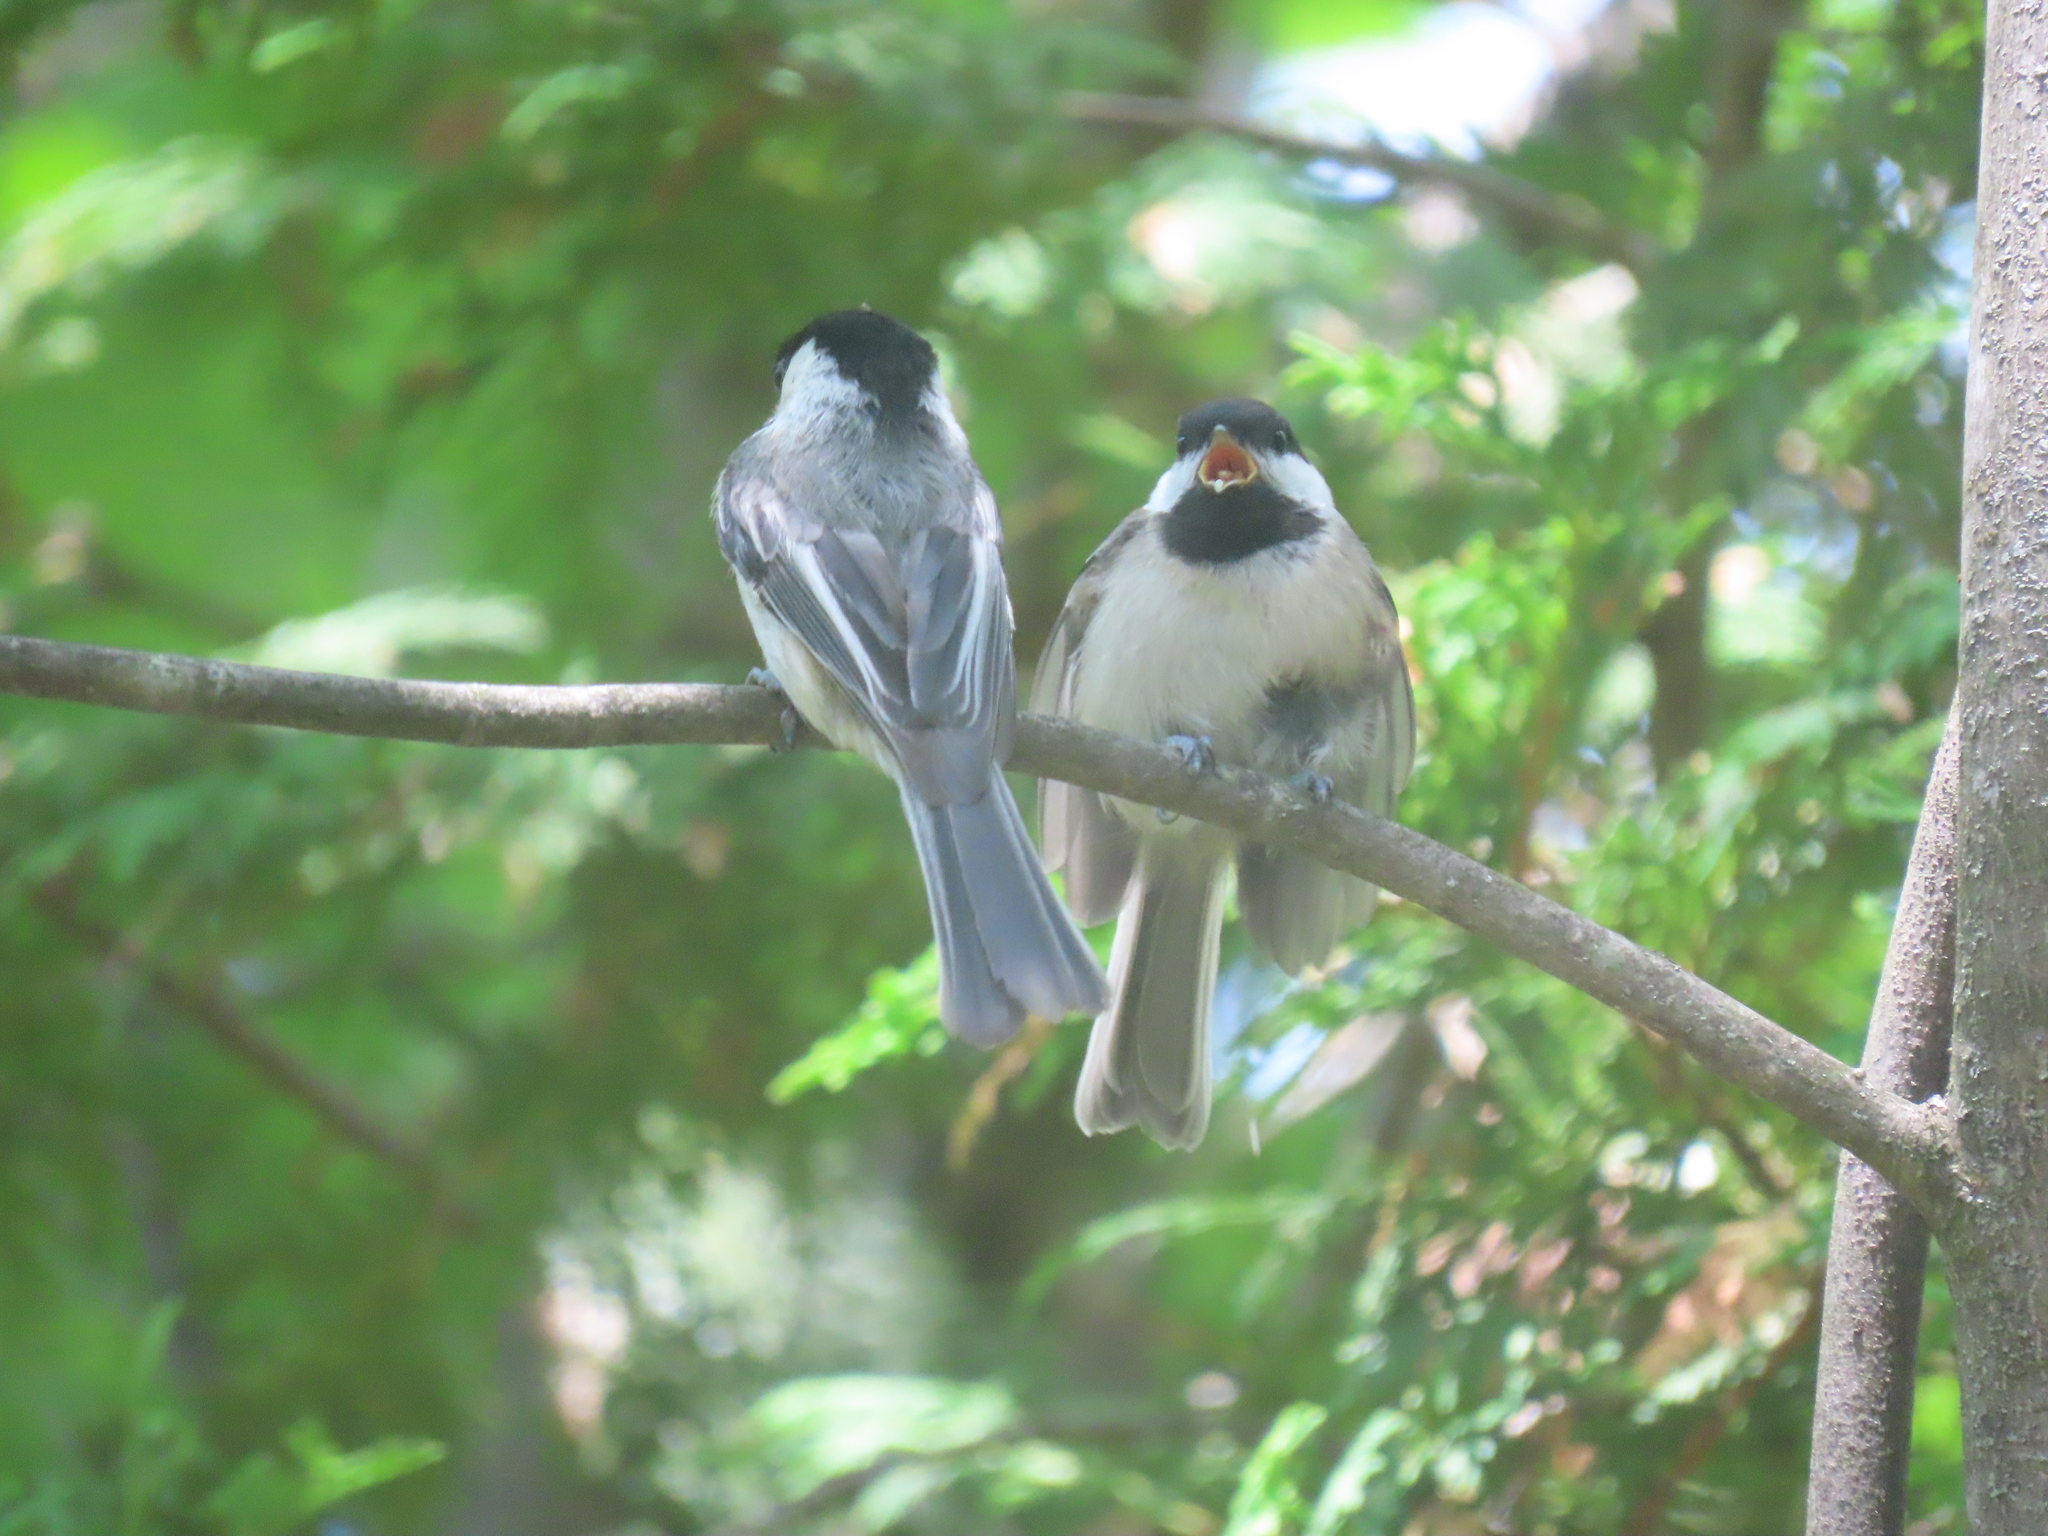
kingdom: Animalia
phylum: Chordata
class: Aves
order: Passeriformes
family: Paridae
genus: Poecile
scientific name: Poecile atricapillus
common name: Black-capped chickadee
